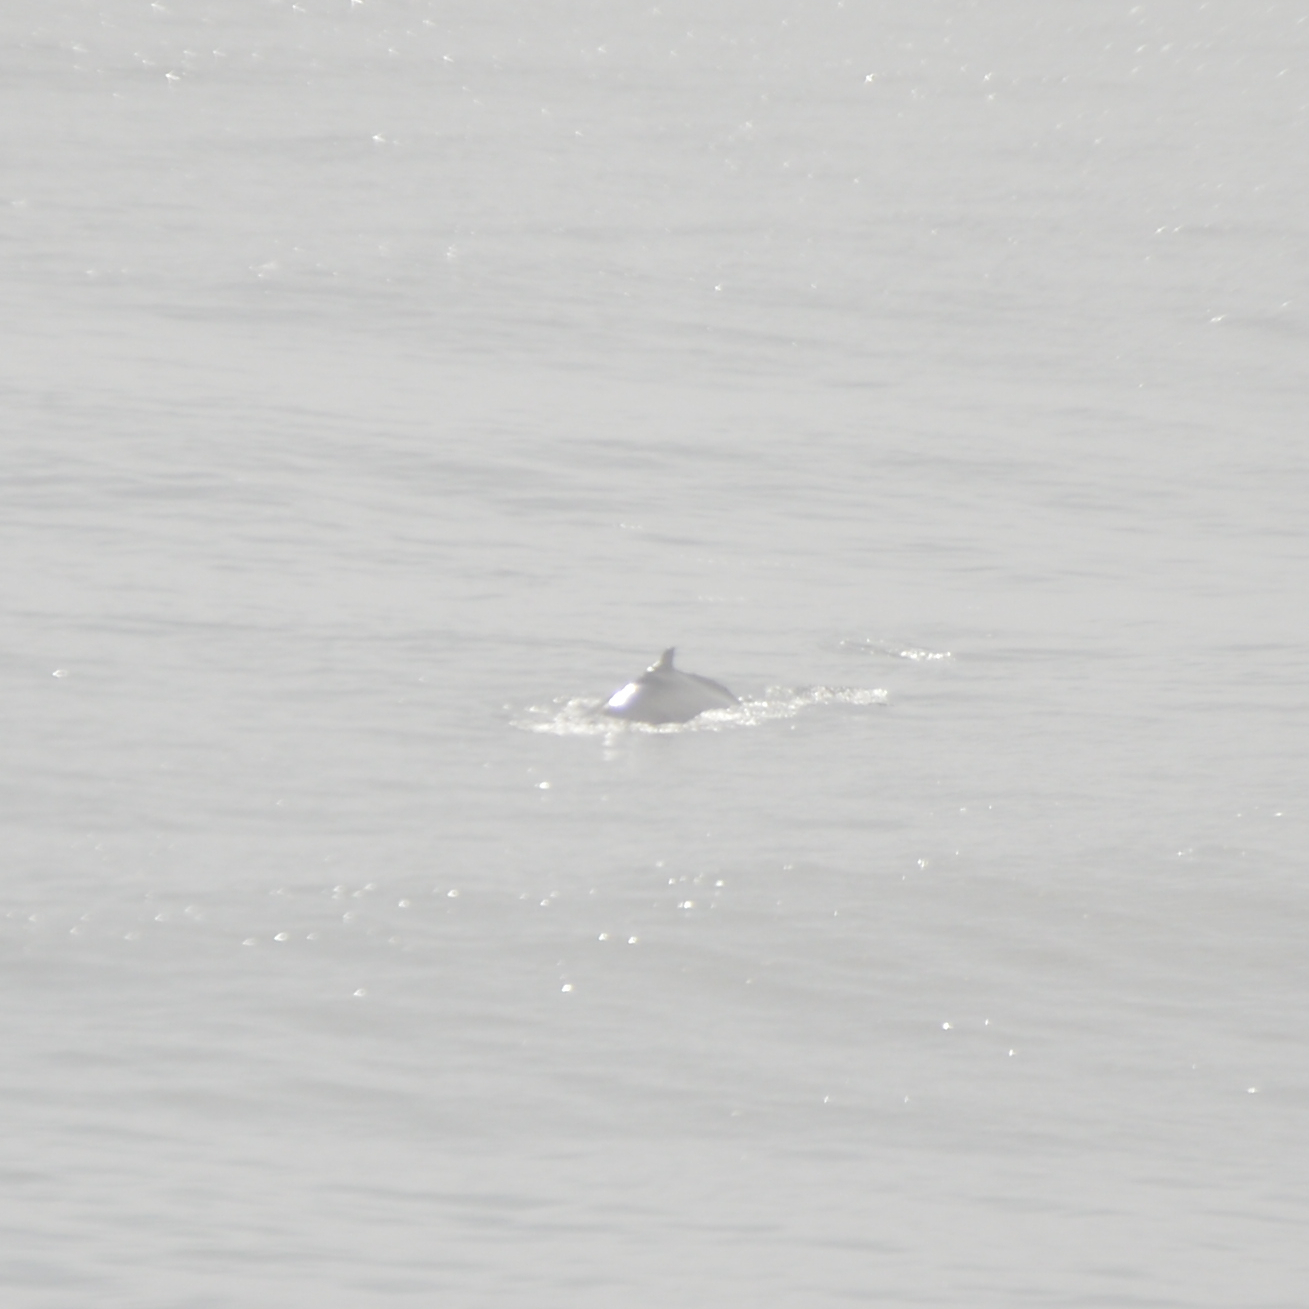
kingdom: Animalia
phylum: Chordata
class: Mammalia
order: Cetacea
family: Balaenopteridae
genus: Megaptera
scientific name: Megaptera novaeangliae
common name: Humpback whale
